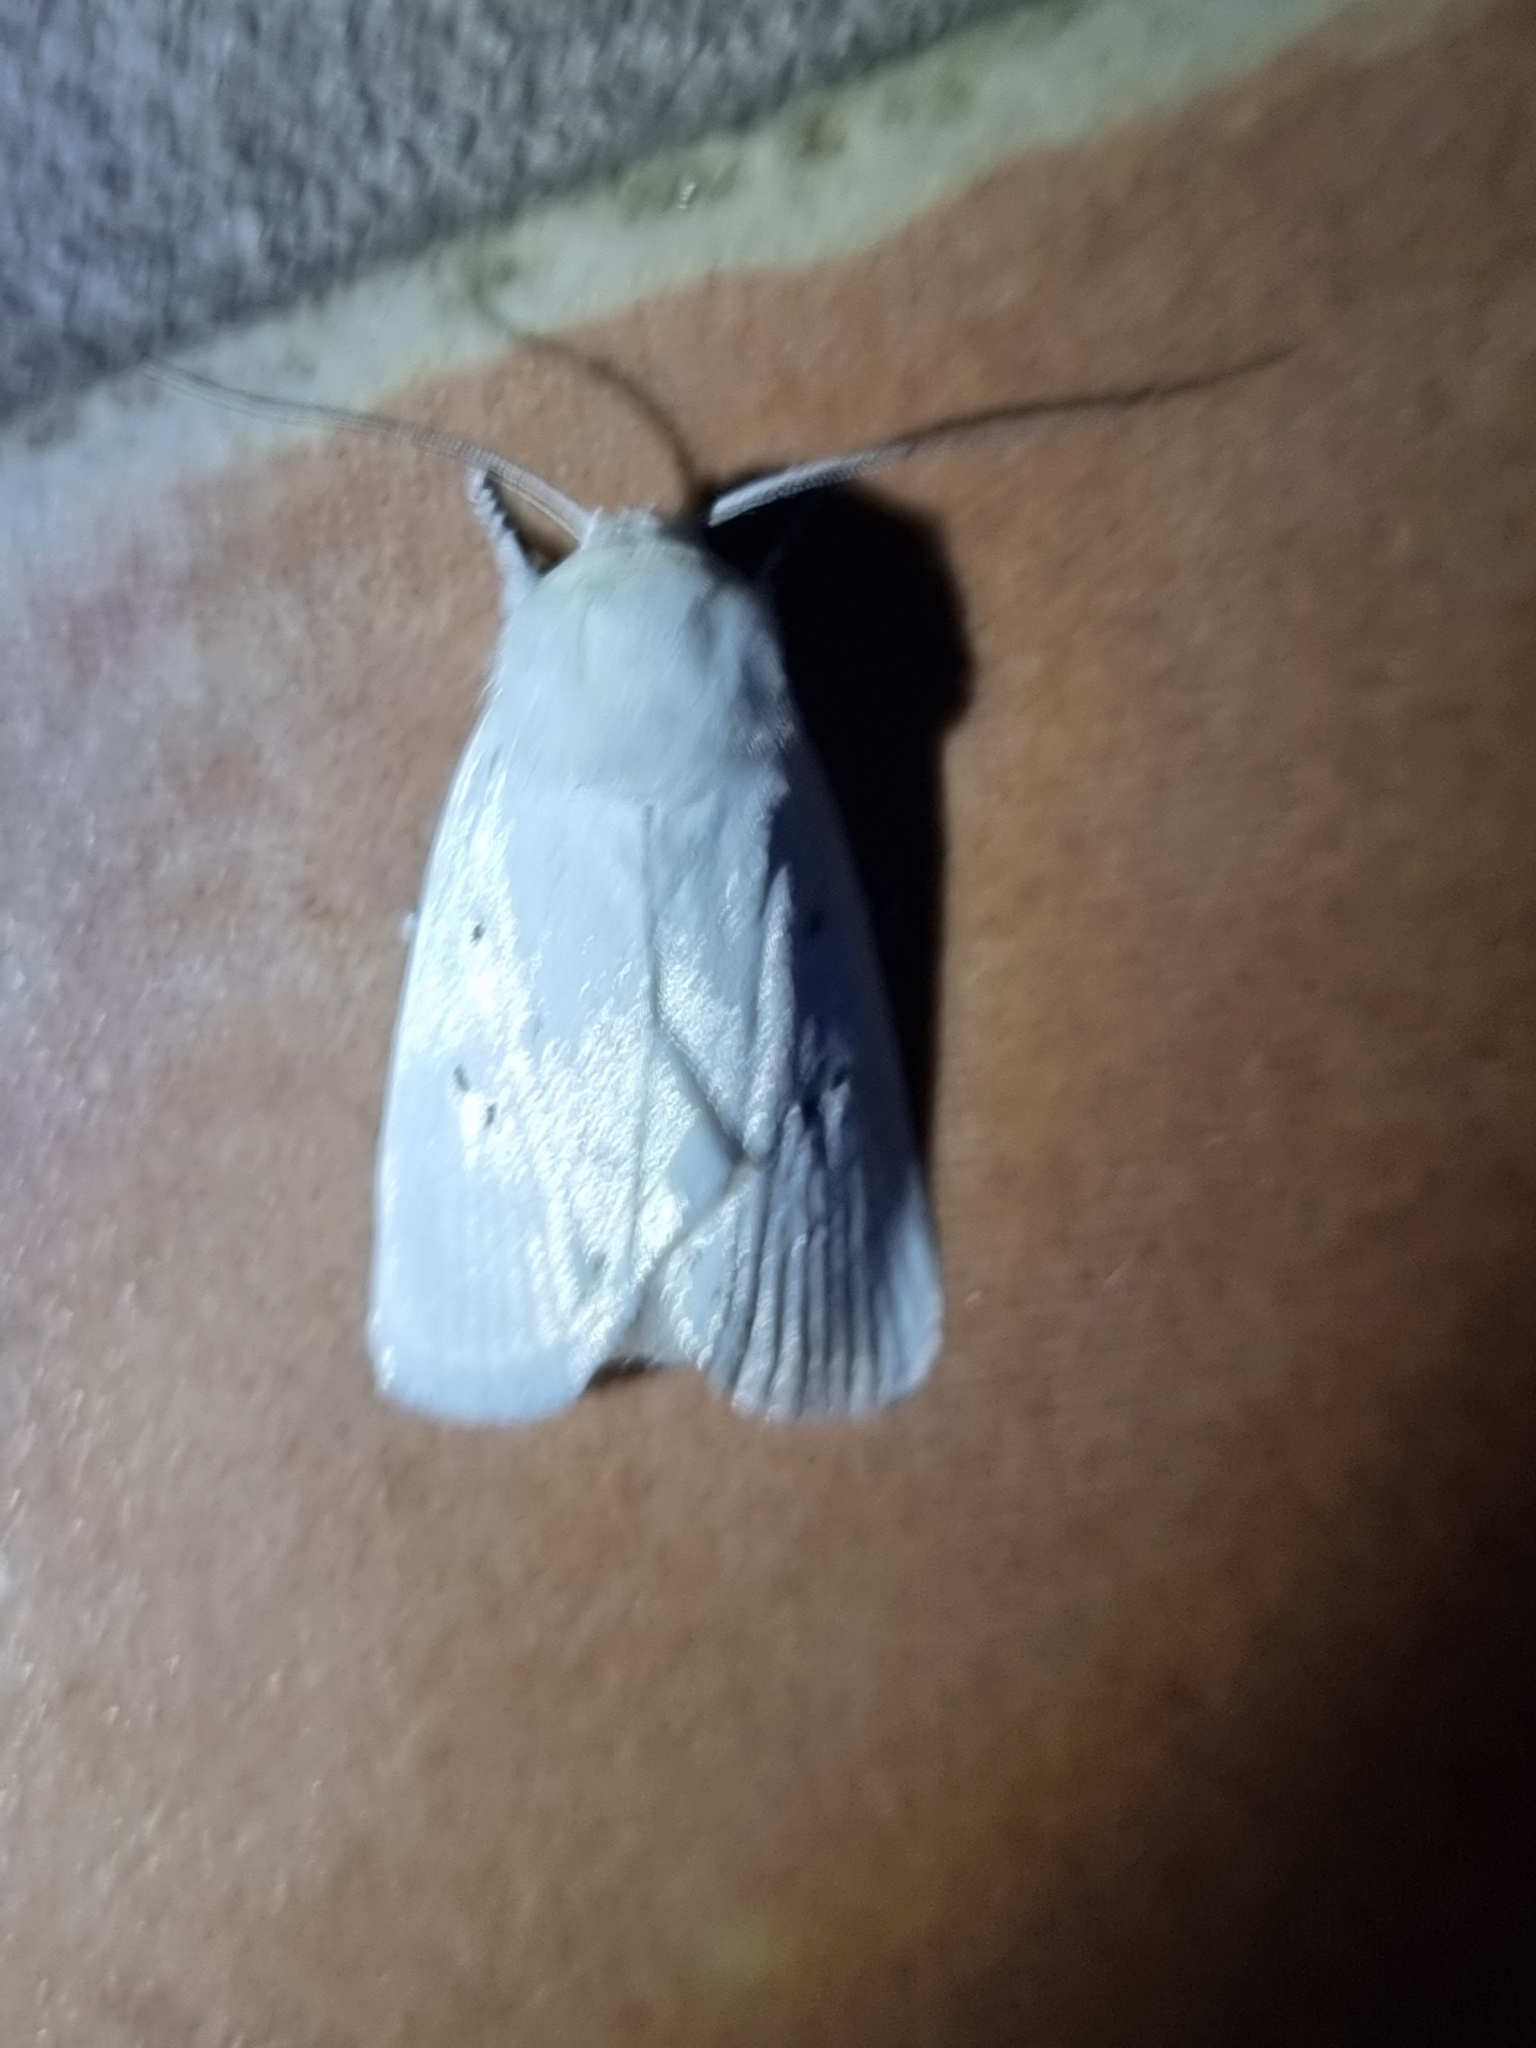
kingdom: Animalia
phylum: Arthropoda
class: Insecta
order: Lepidoptera
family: Xyloryctidae
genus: Cryptophasa
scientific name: Cryptophasa pultenae
